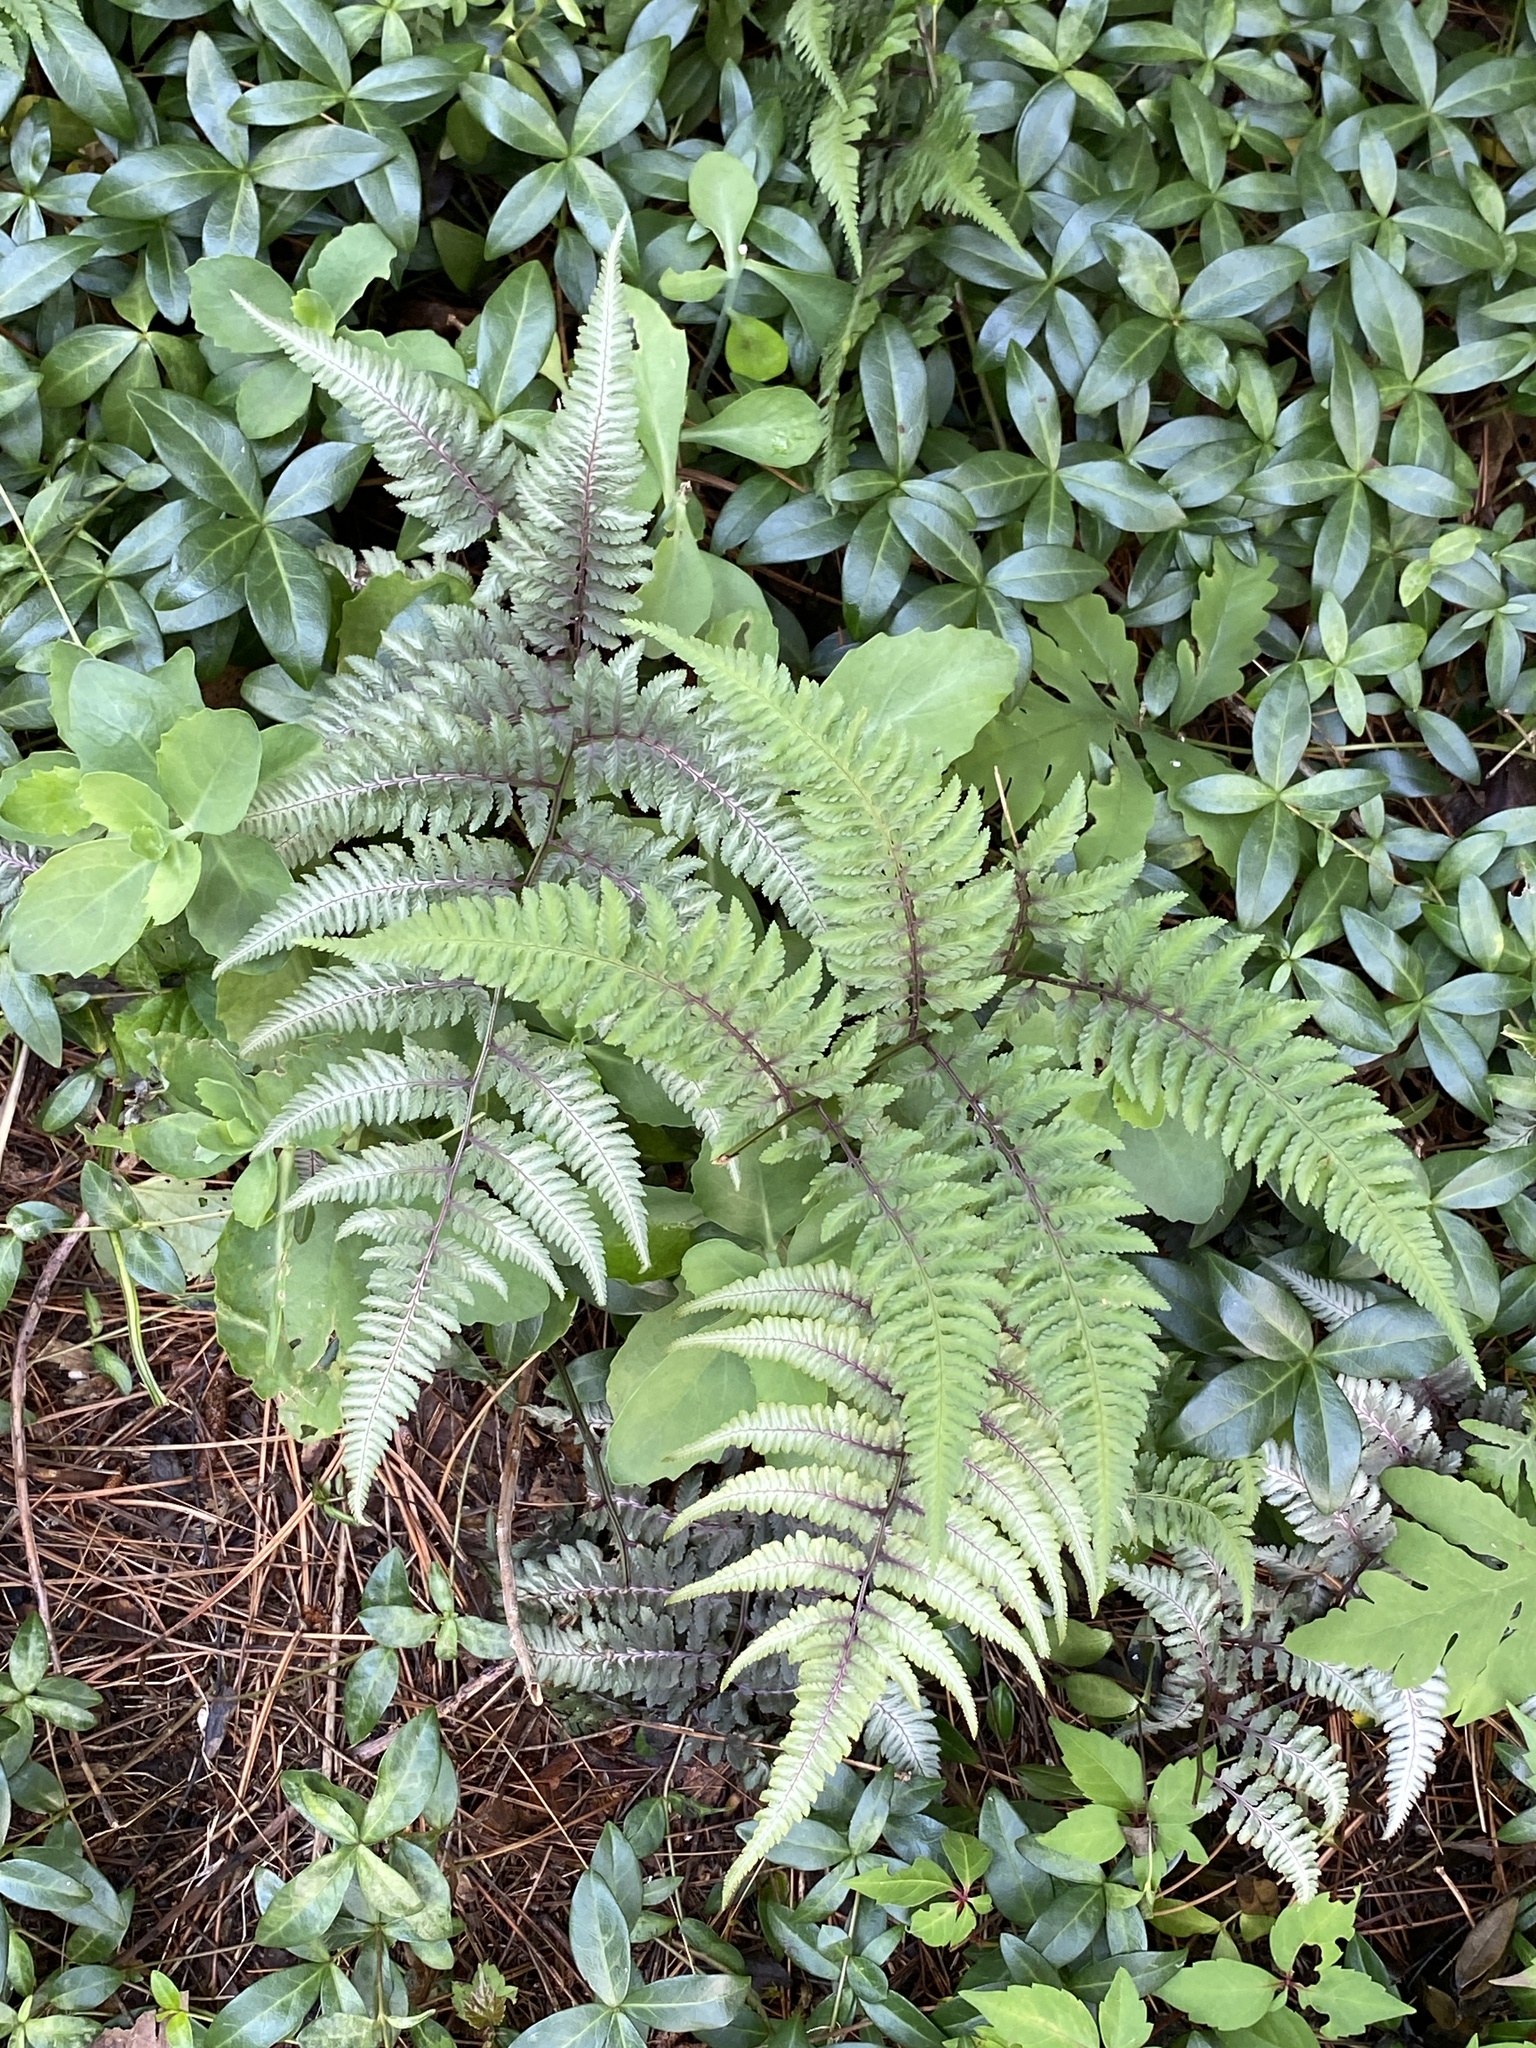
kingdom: Plantae
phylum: Tracheophyta
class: Polypodiopsida
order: Polypodiales
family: Athyriaceae
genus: Anisocampium
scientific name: Anisocampium niponicum
